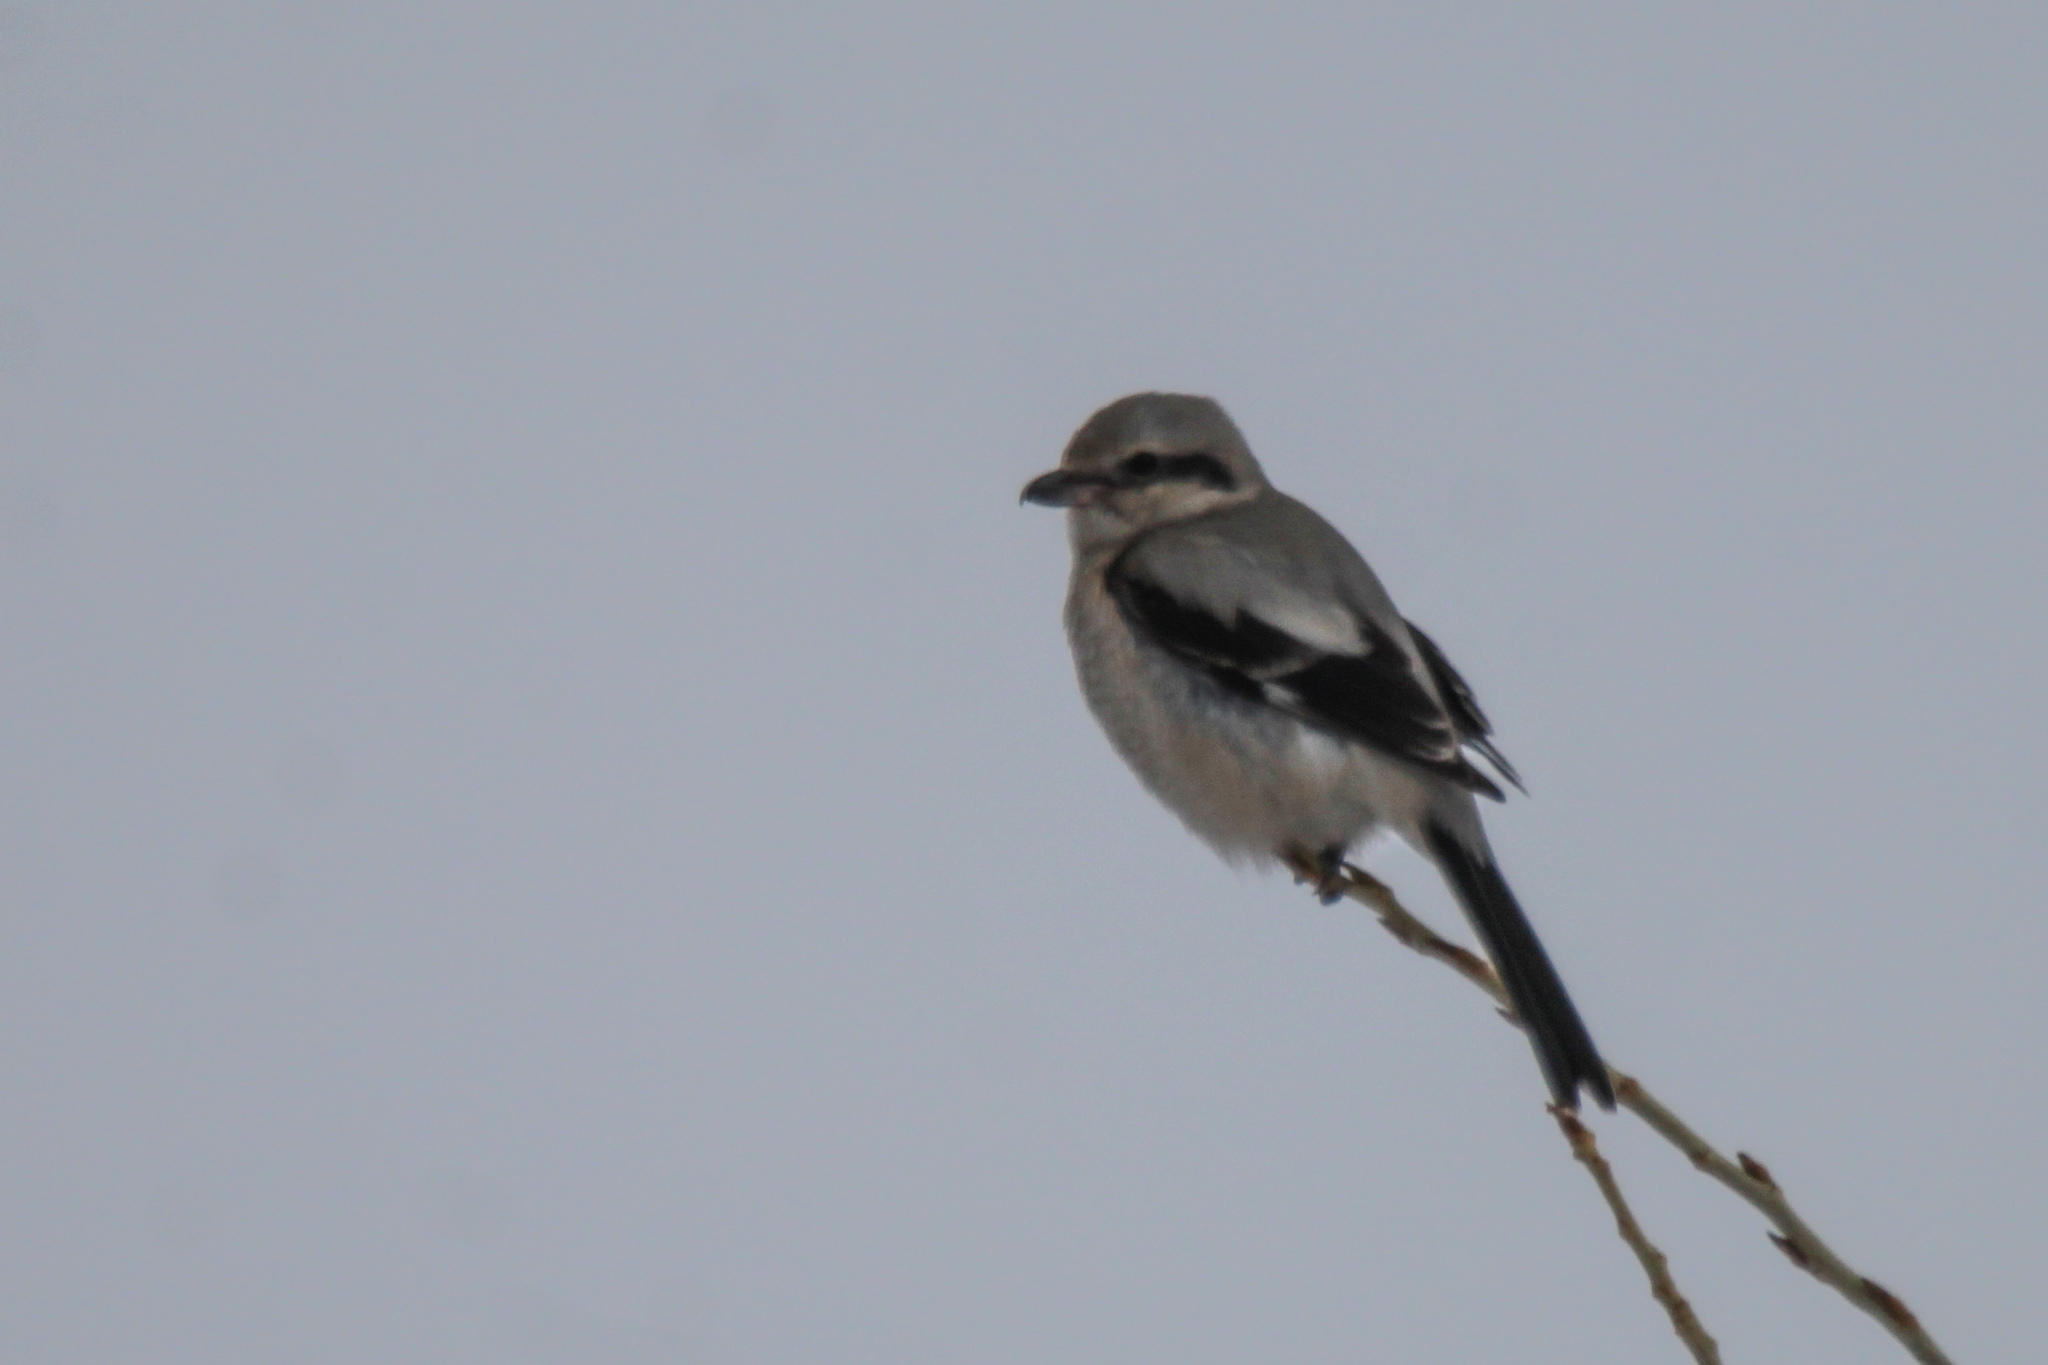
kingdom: Animalia
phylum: Chordata
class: Aves
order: Passeriformes
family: Laniidae
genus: Lanius
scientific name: Lanius borealis
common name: Northern shrike
